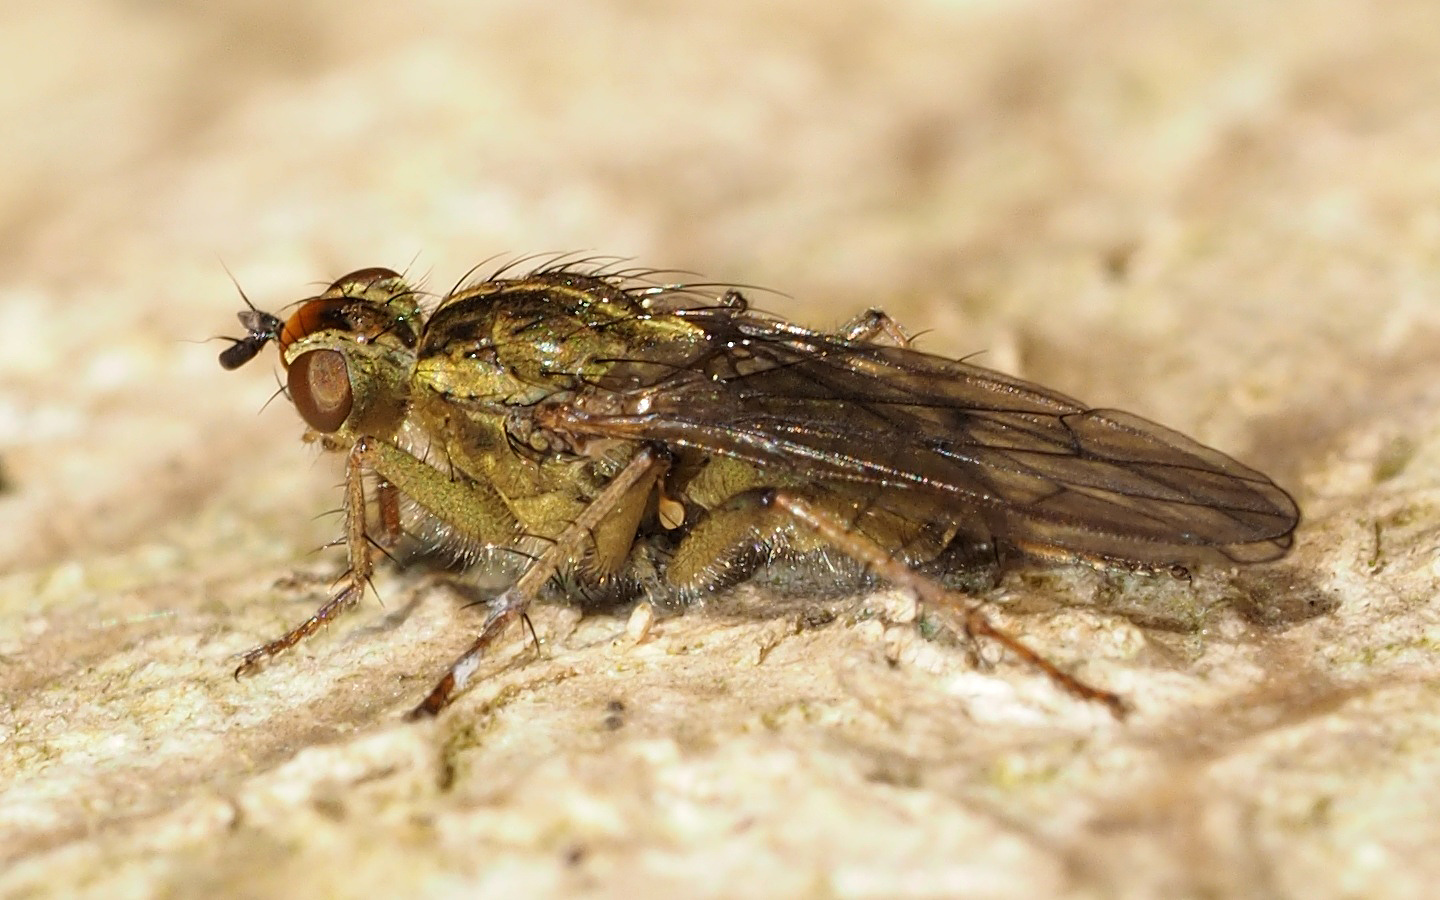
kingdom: Animalia
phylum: Arthropoda
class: Insecta
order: Diptera
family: Scathophagidae
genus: Scathophaga
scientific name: Scathophaga stercoraria
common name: Yellow dung fly
